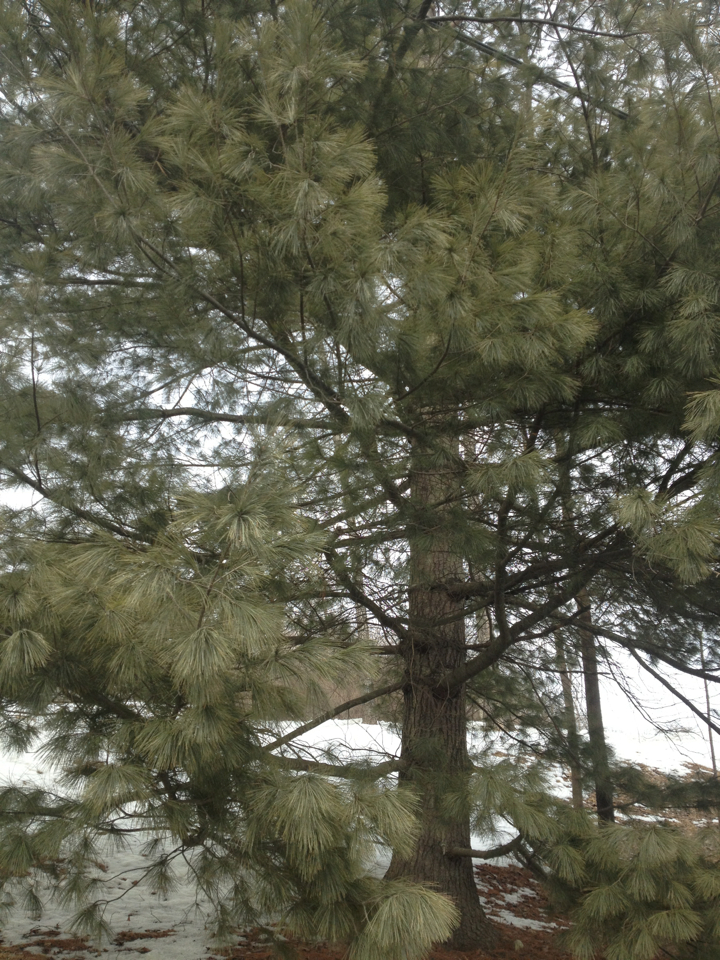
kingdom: Plantae
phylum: Tracheophyta
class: Pinopsida
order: Pinales
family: Pinaceae
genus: Pinus
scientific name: Pinus strobus
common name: Weymouth pine
